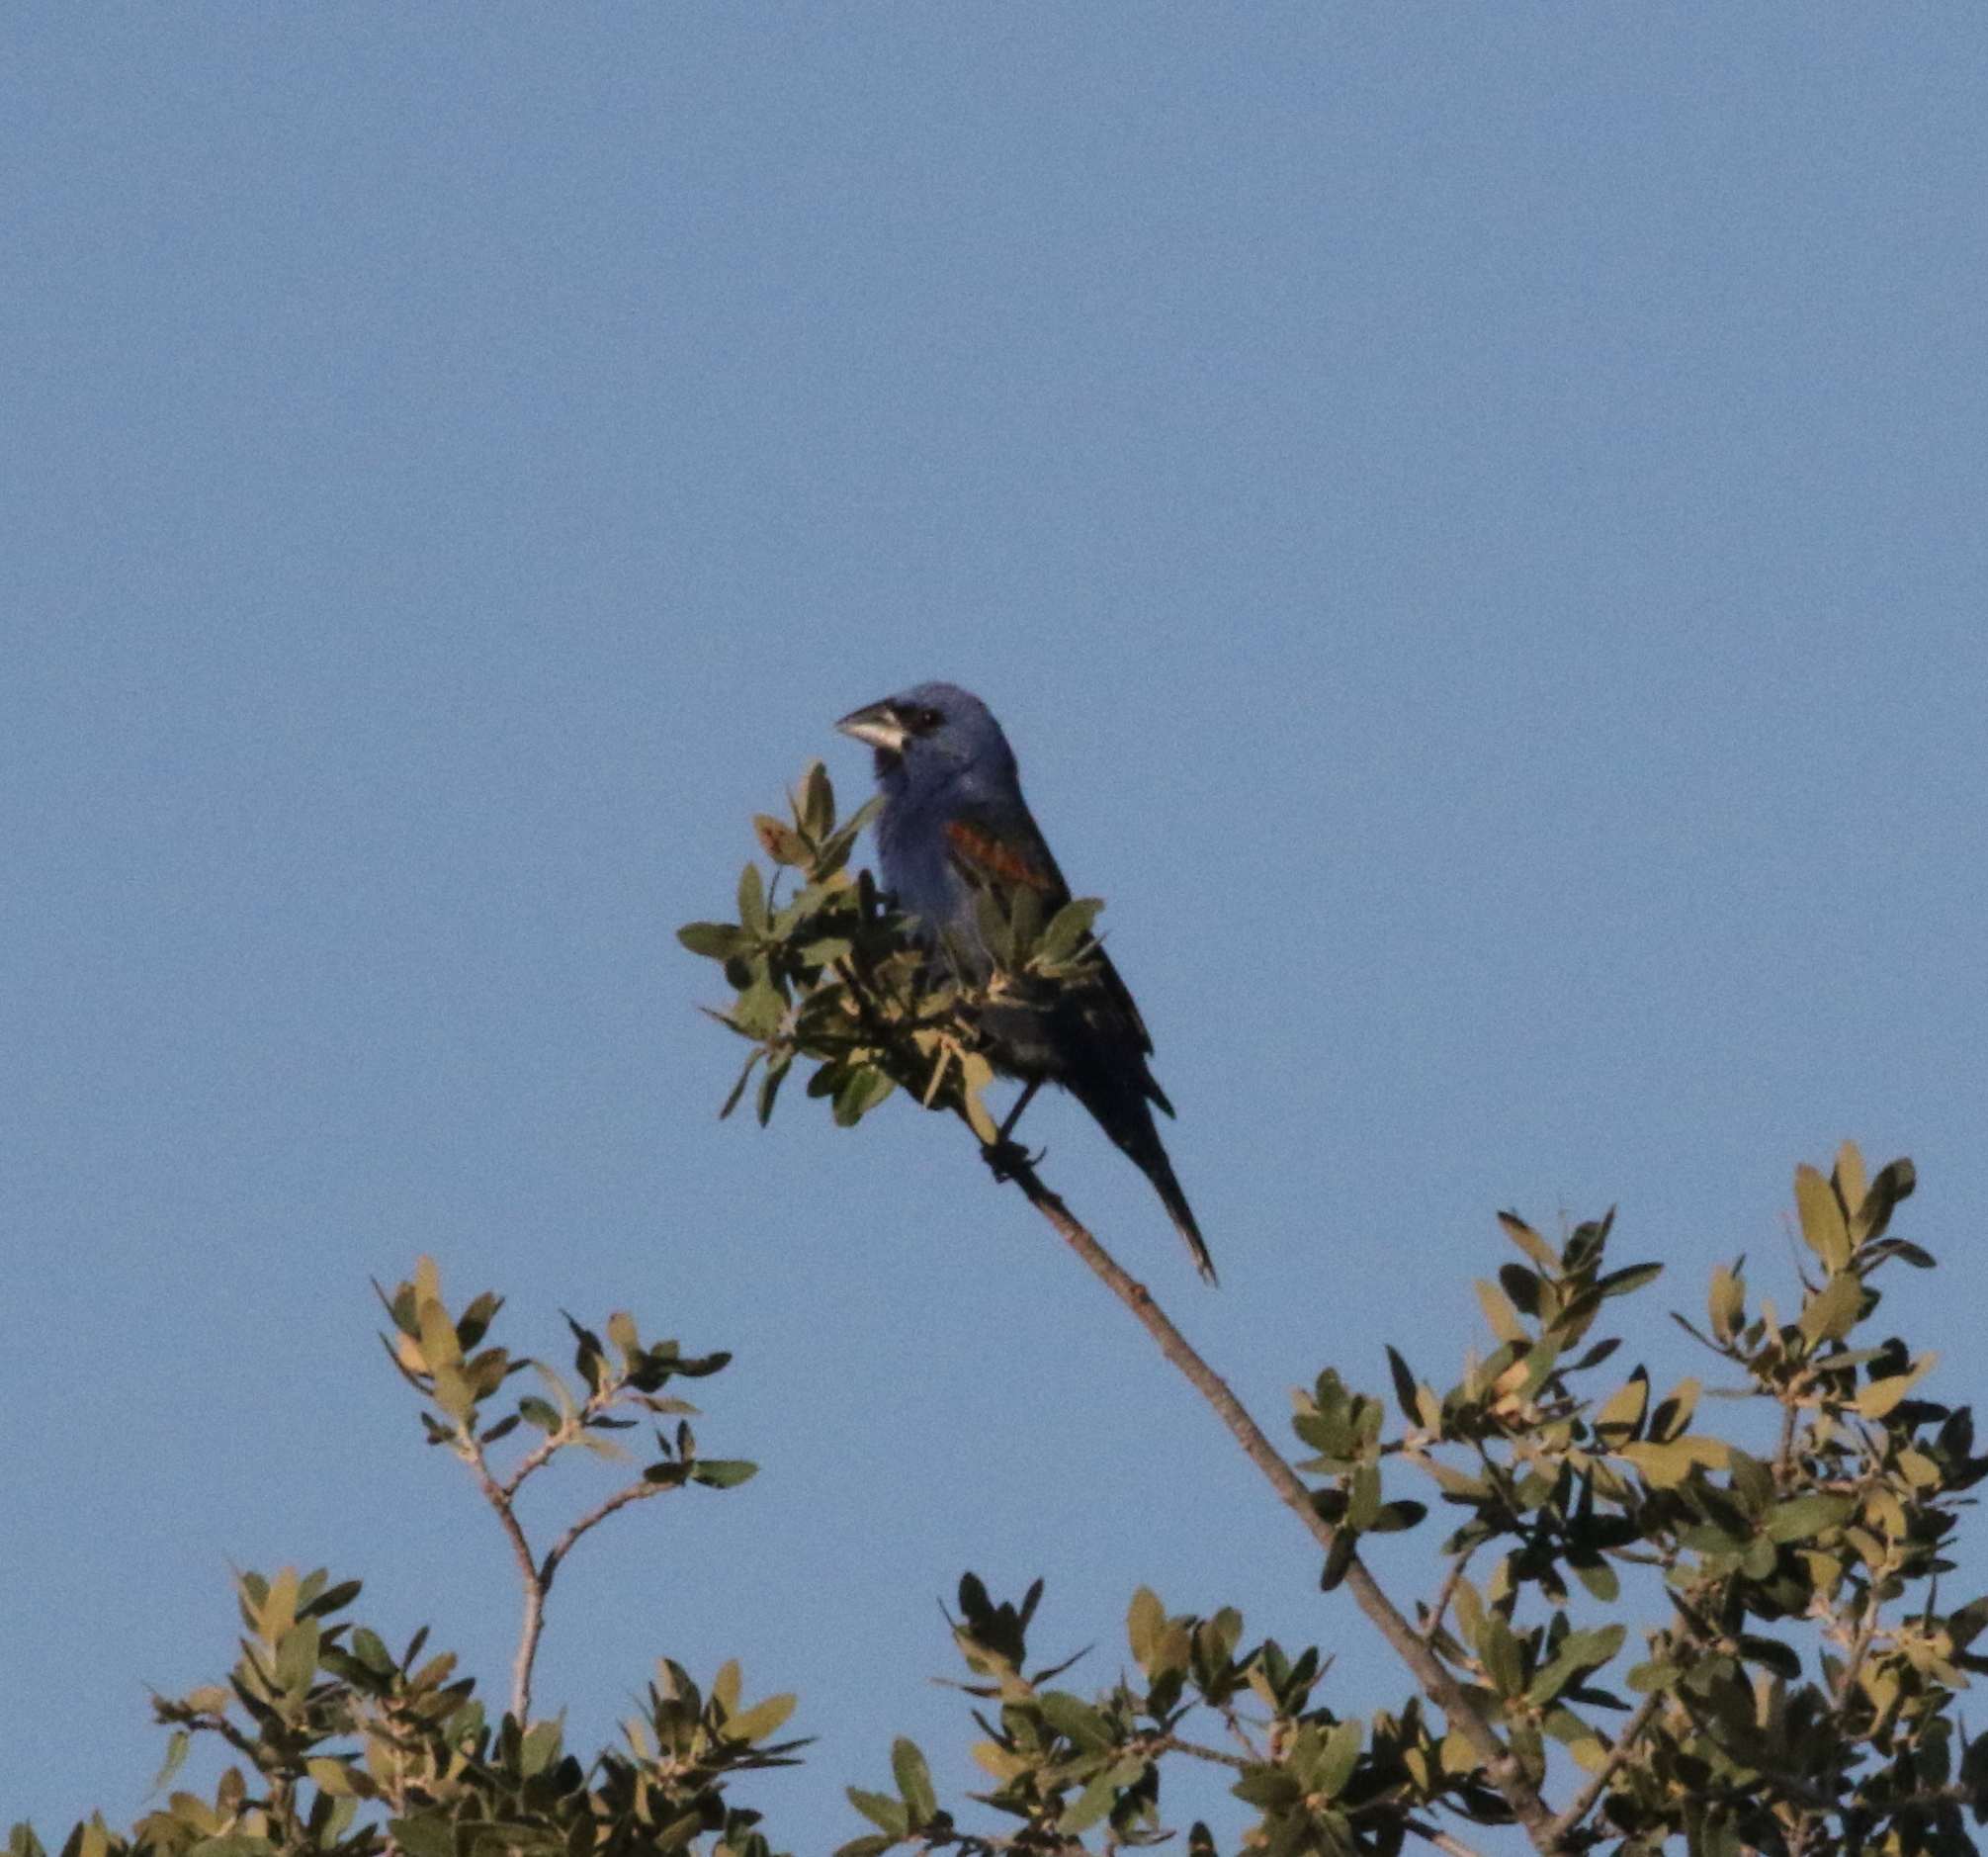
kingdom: Animalia
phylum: Chordata
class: Aves
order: Passeriformes
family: Cardinalidae
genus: Passerina
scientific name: Passerina caerulea
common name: Blue grosbeak
